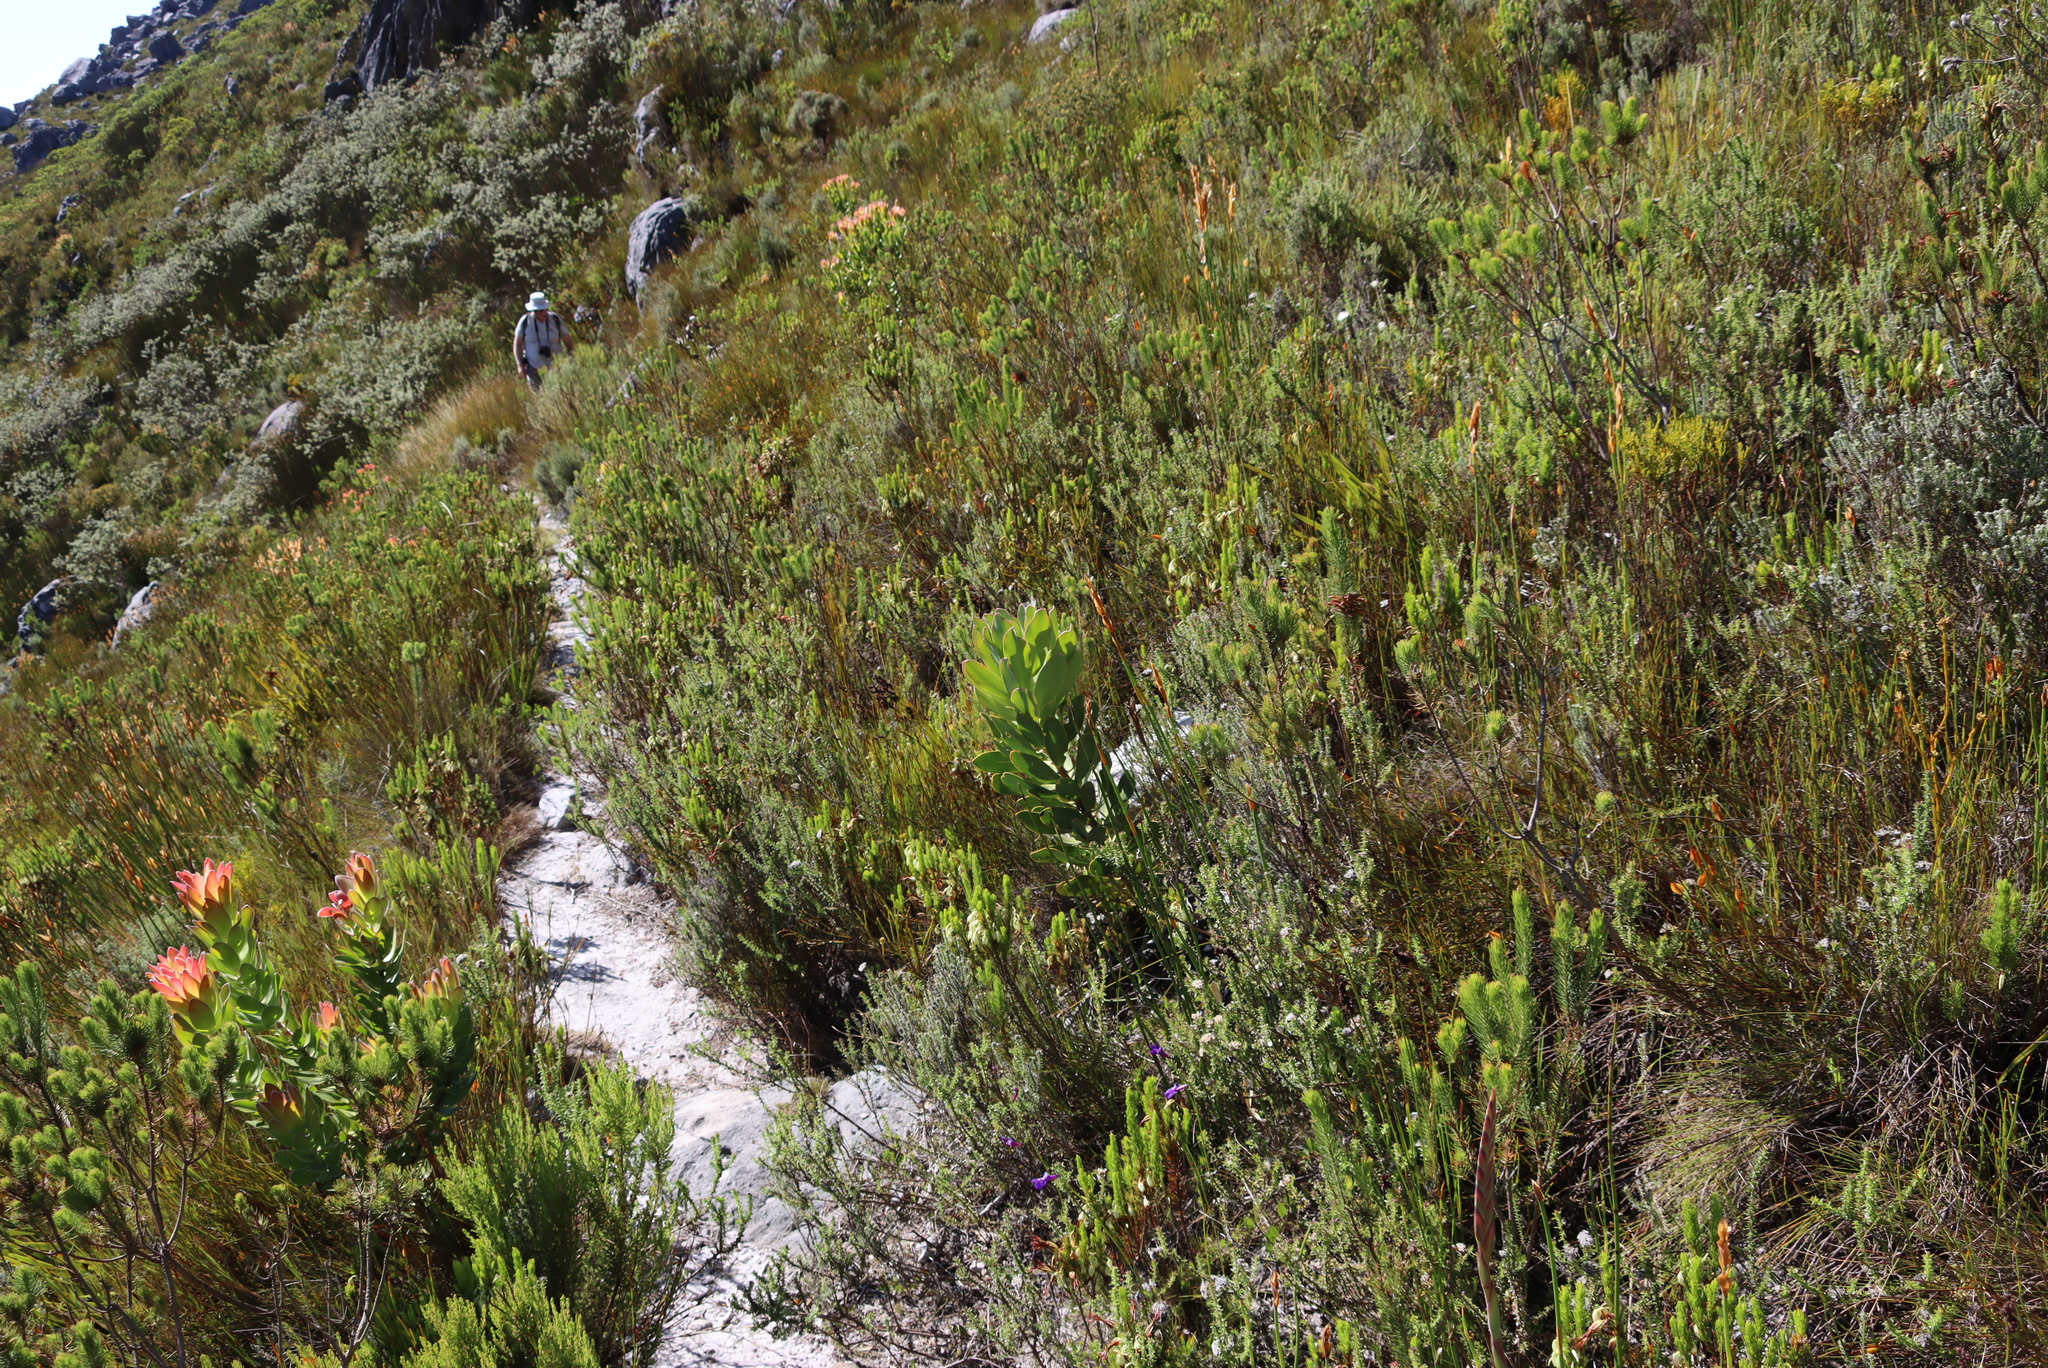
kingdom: Plantae
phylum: Tracheophyta
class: Magnoliopsida
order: Proteales
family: Proteaceae
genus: Protea
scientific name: Protea speciosa
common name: Brown-beard sugarbush
